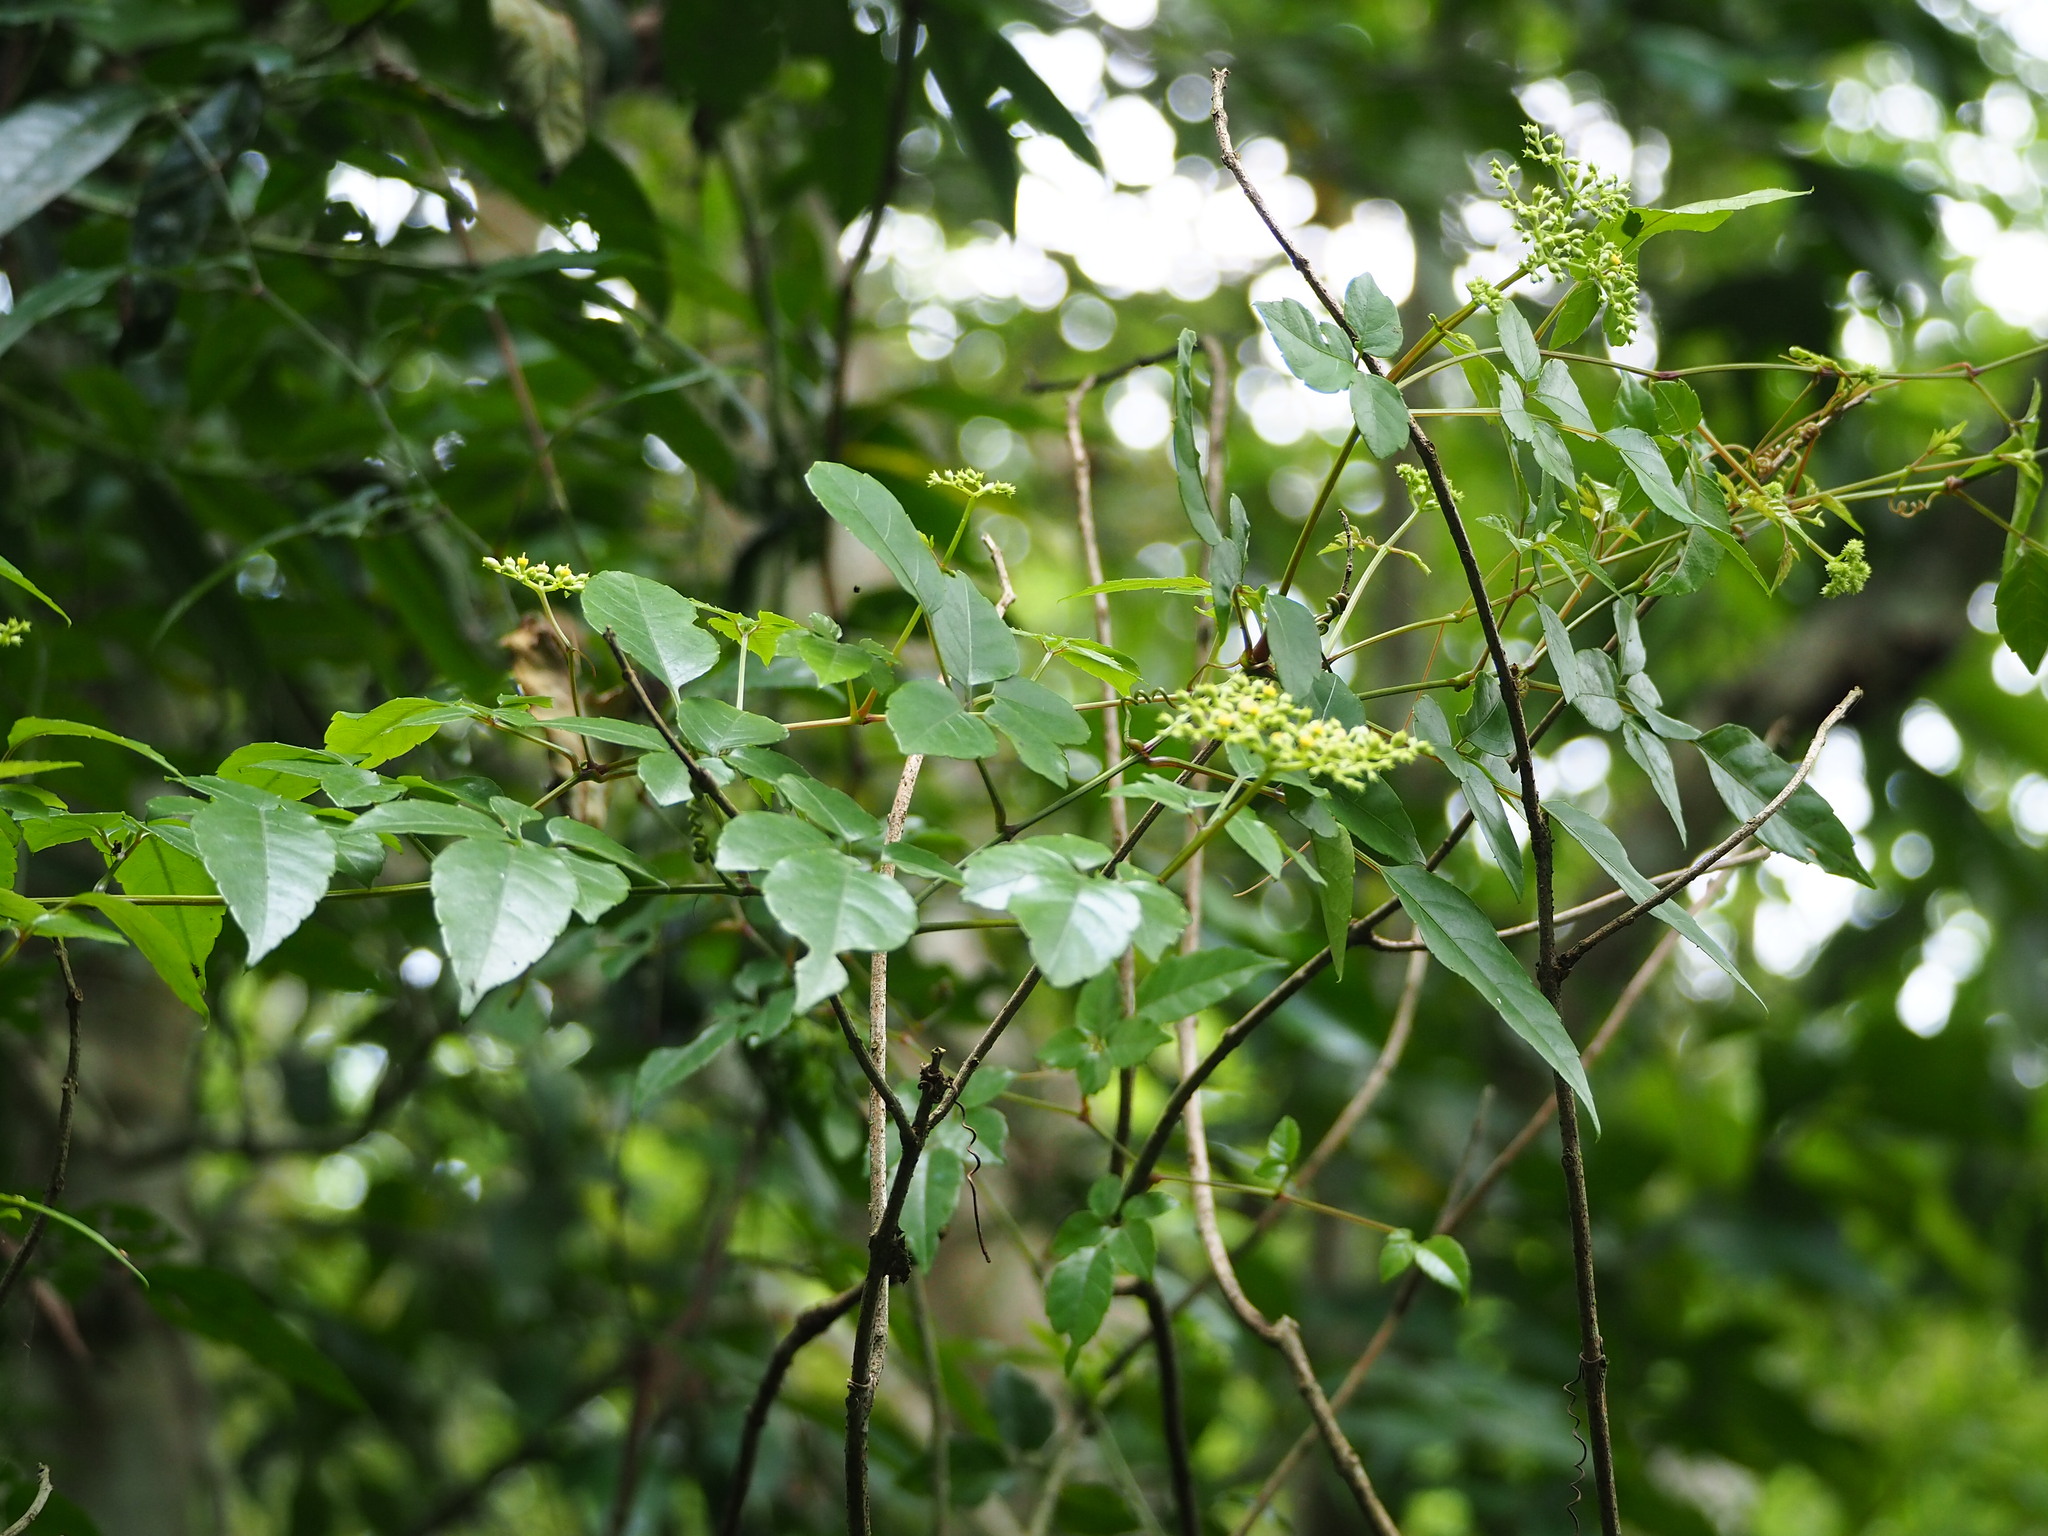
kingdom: Plantae
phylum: Tracheophyta
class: Magnoliopsida
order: Vitales
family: Vitaceae
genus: Causonis
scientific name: Causonis corniculata
